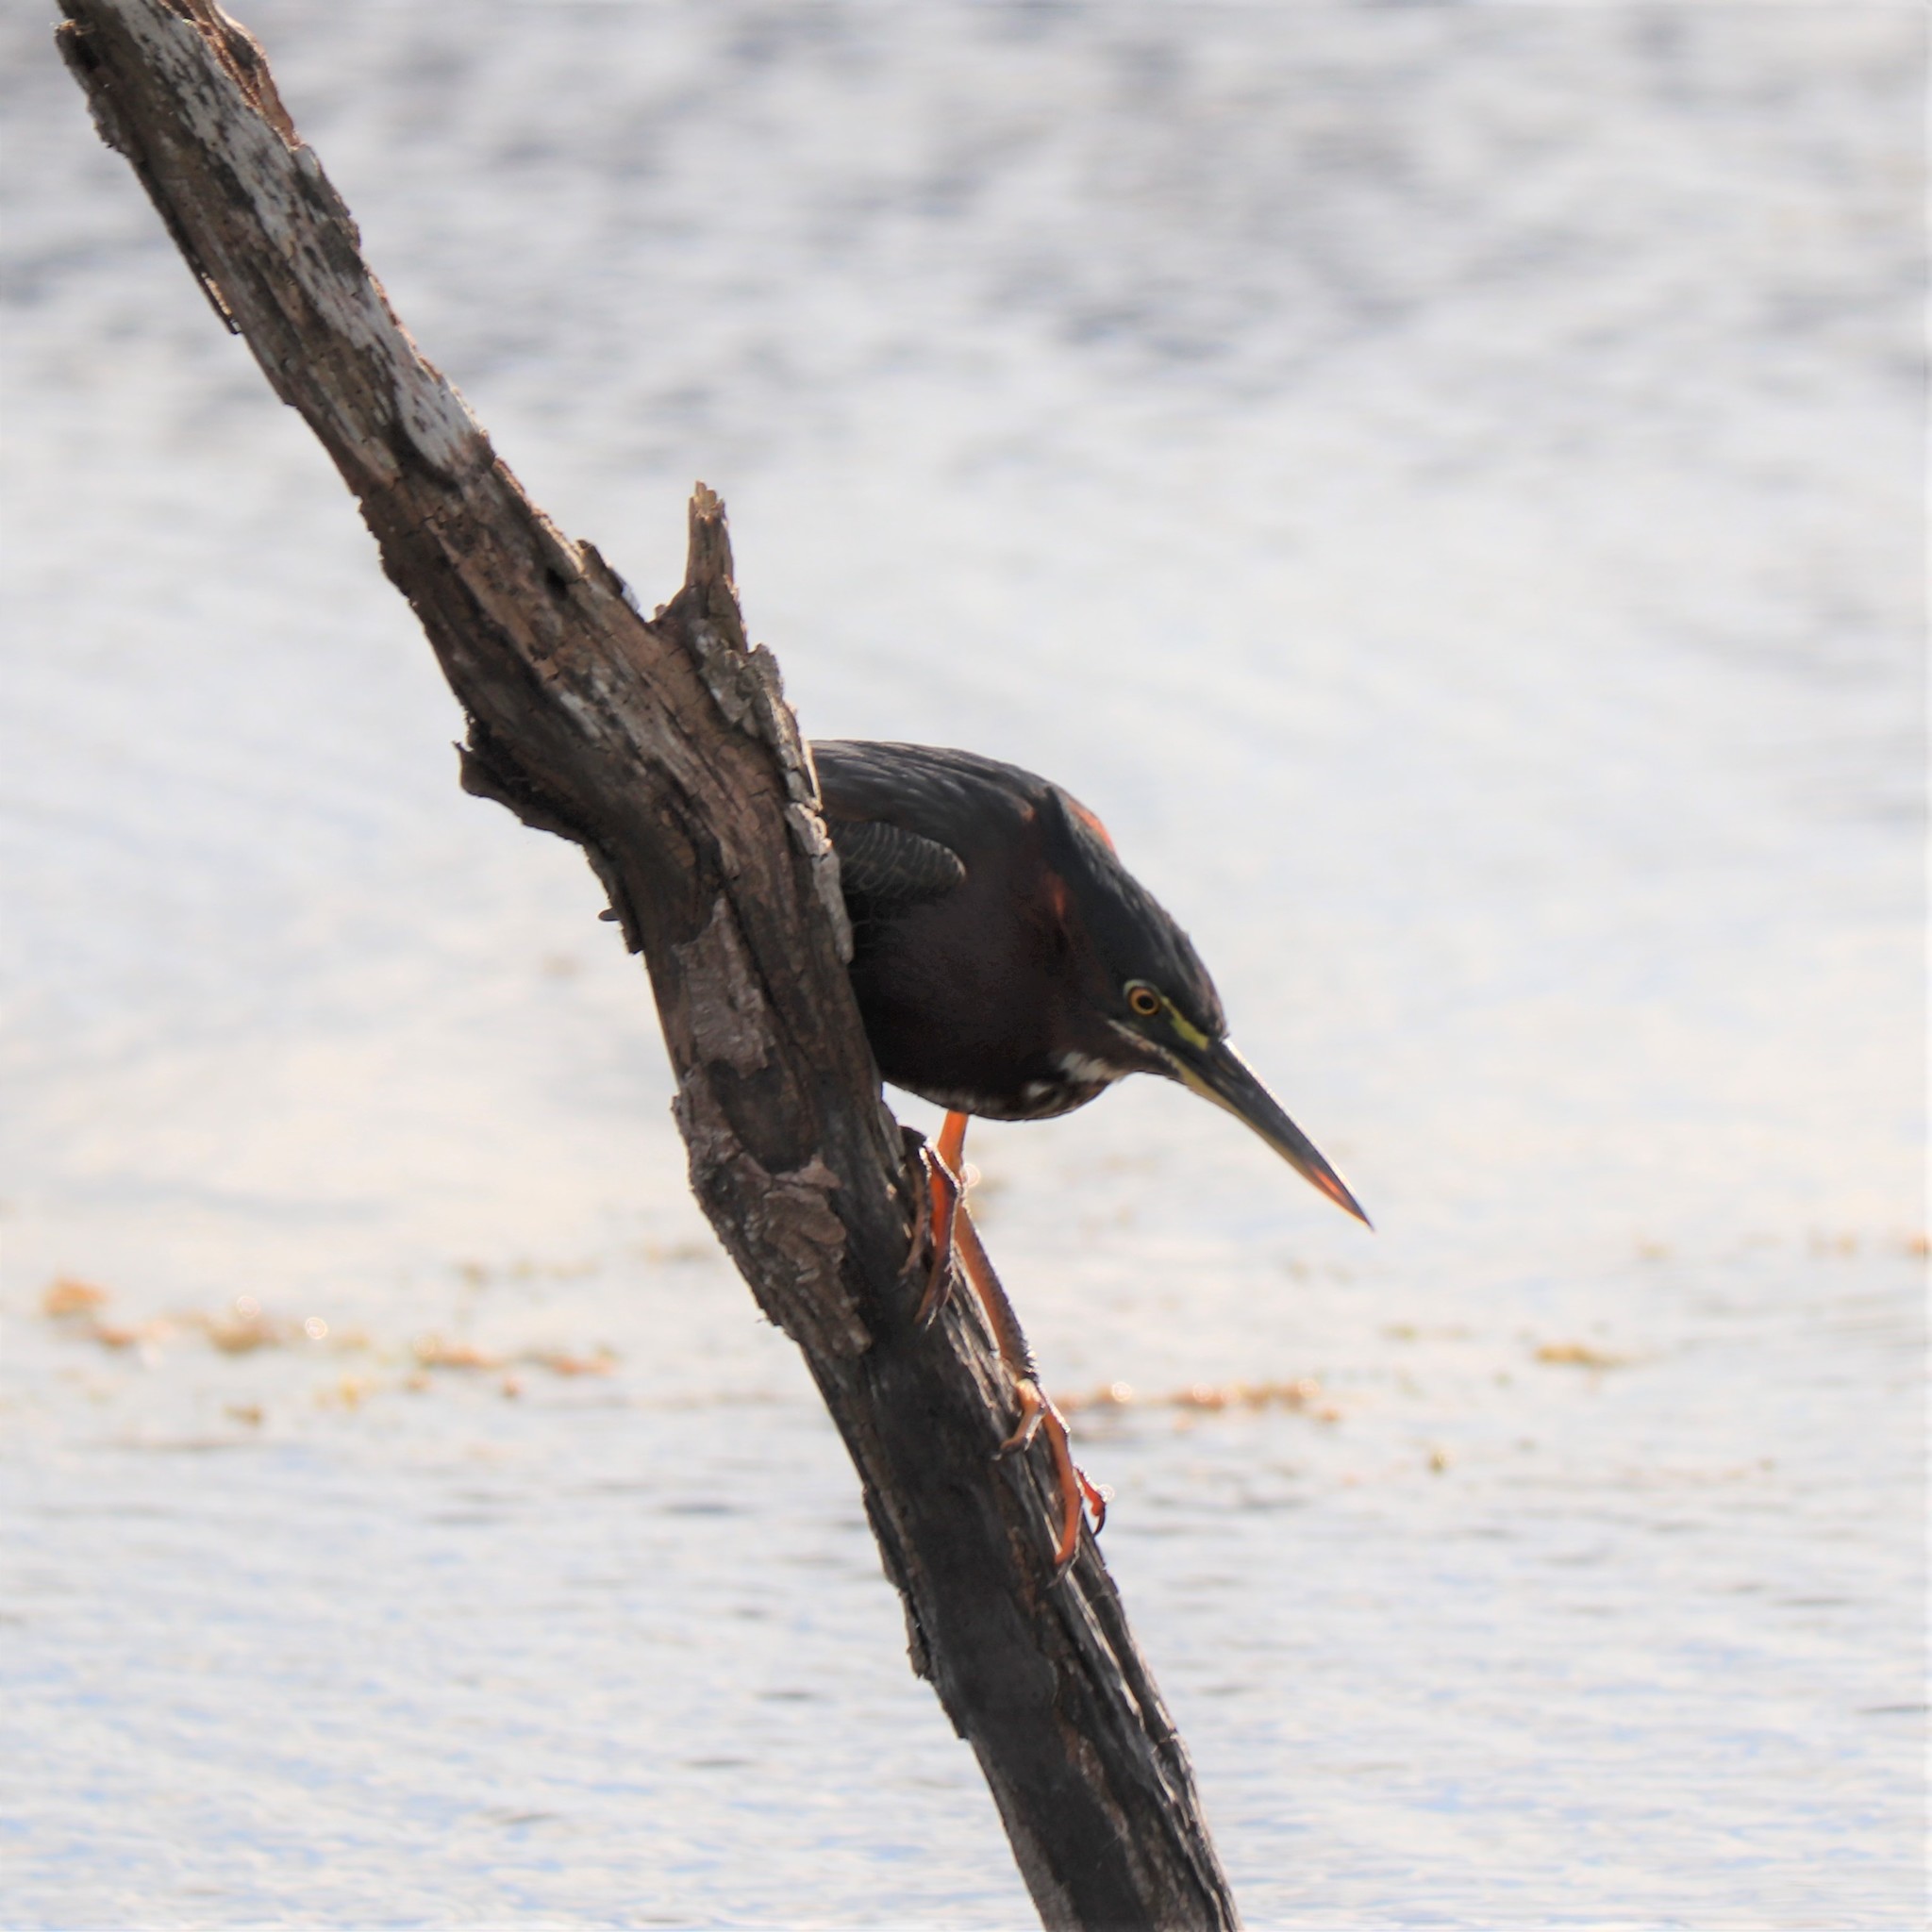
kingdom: Animalia
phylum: Chordata
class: Aves
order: Pelecaniformes
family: Ardeidae
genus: Butorides
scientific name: Butorides virescens
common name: Green heron
